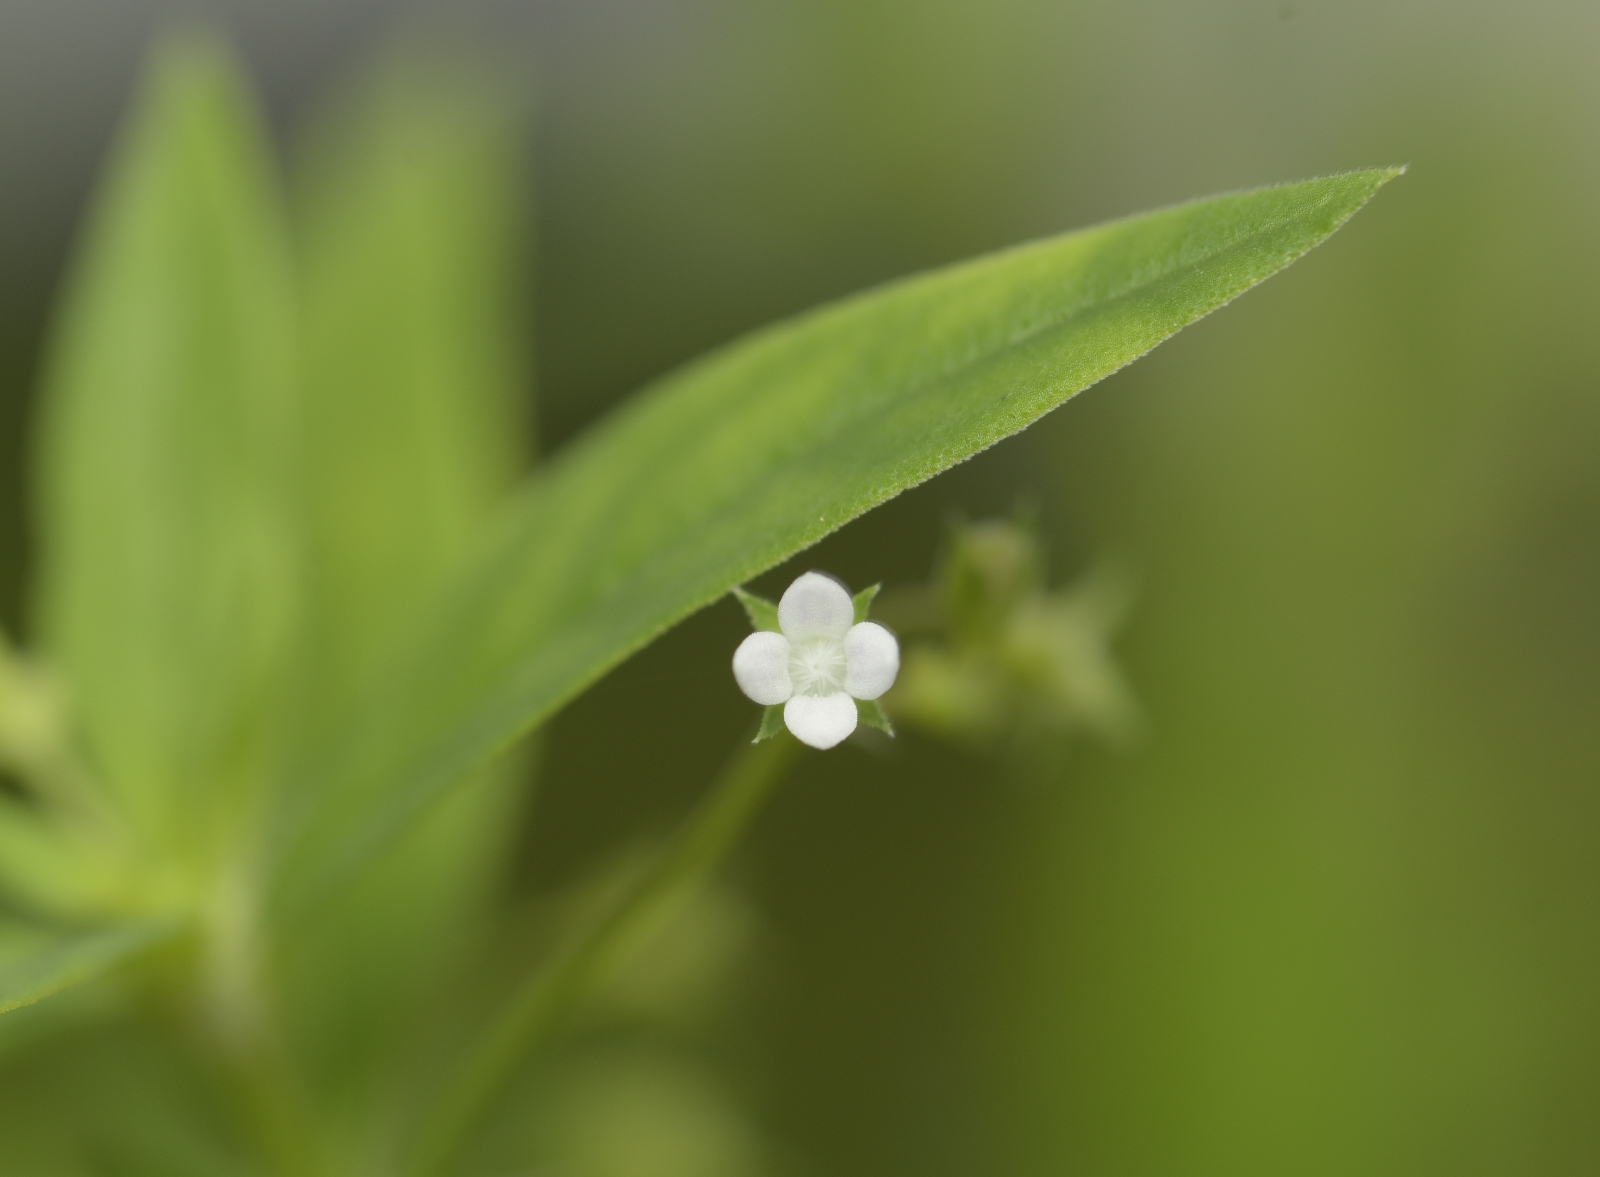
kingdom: Plantae
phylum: Tracheophyta
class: Magnoliopsida
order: Gentianales
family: Rubiaceae
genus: Oldenlandia
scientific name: Oldenlandia corymbosa
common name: Flat-top mille graines
